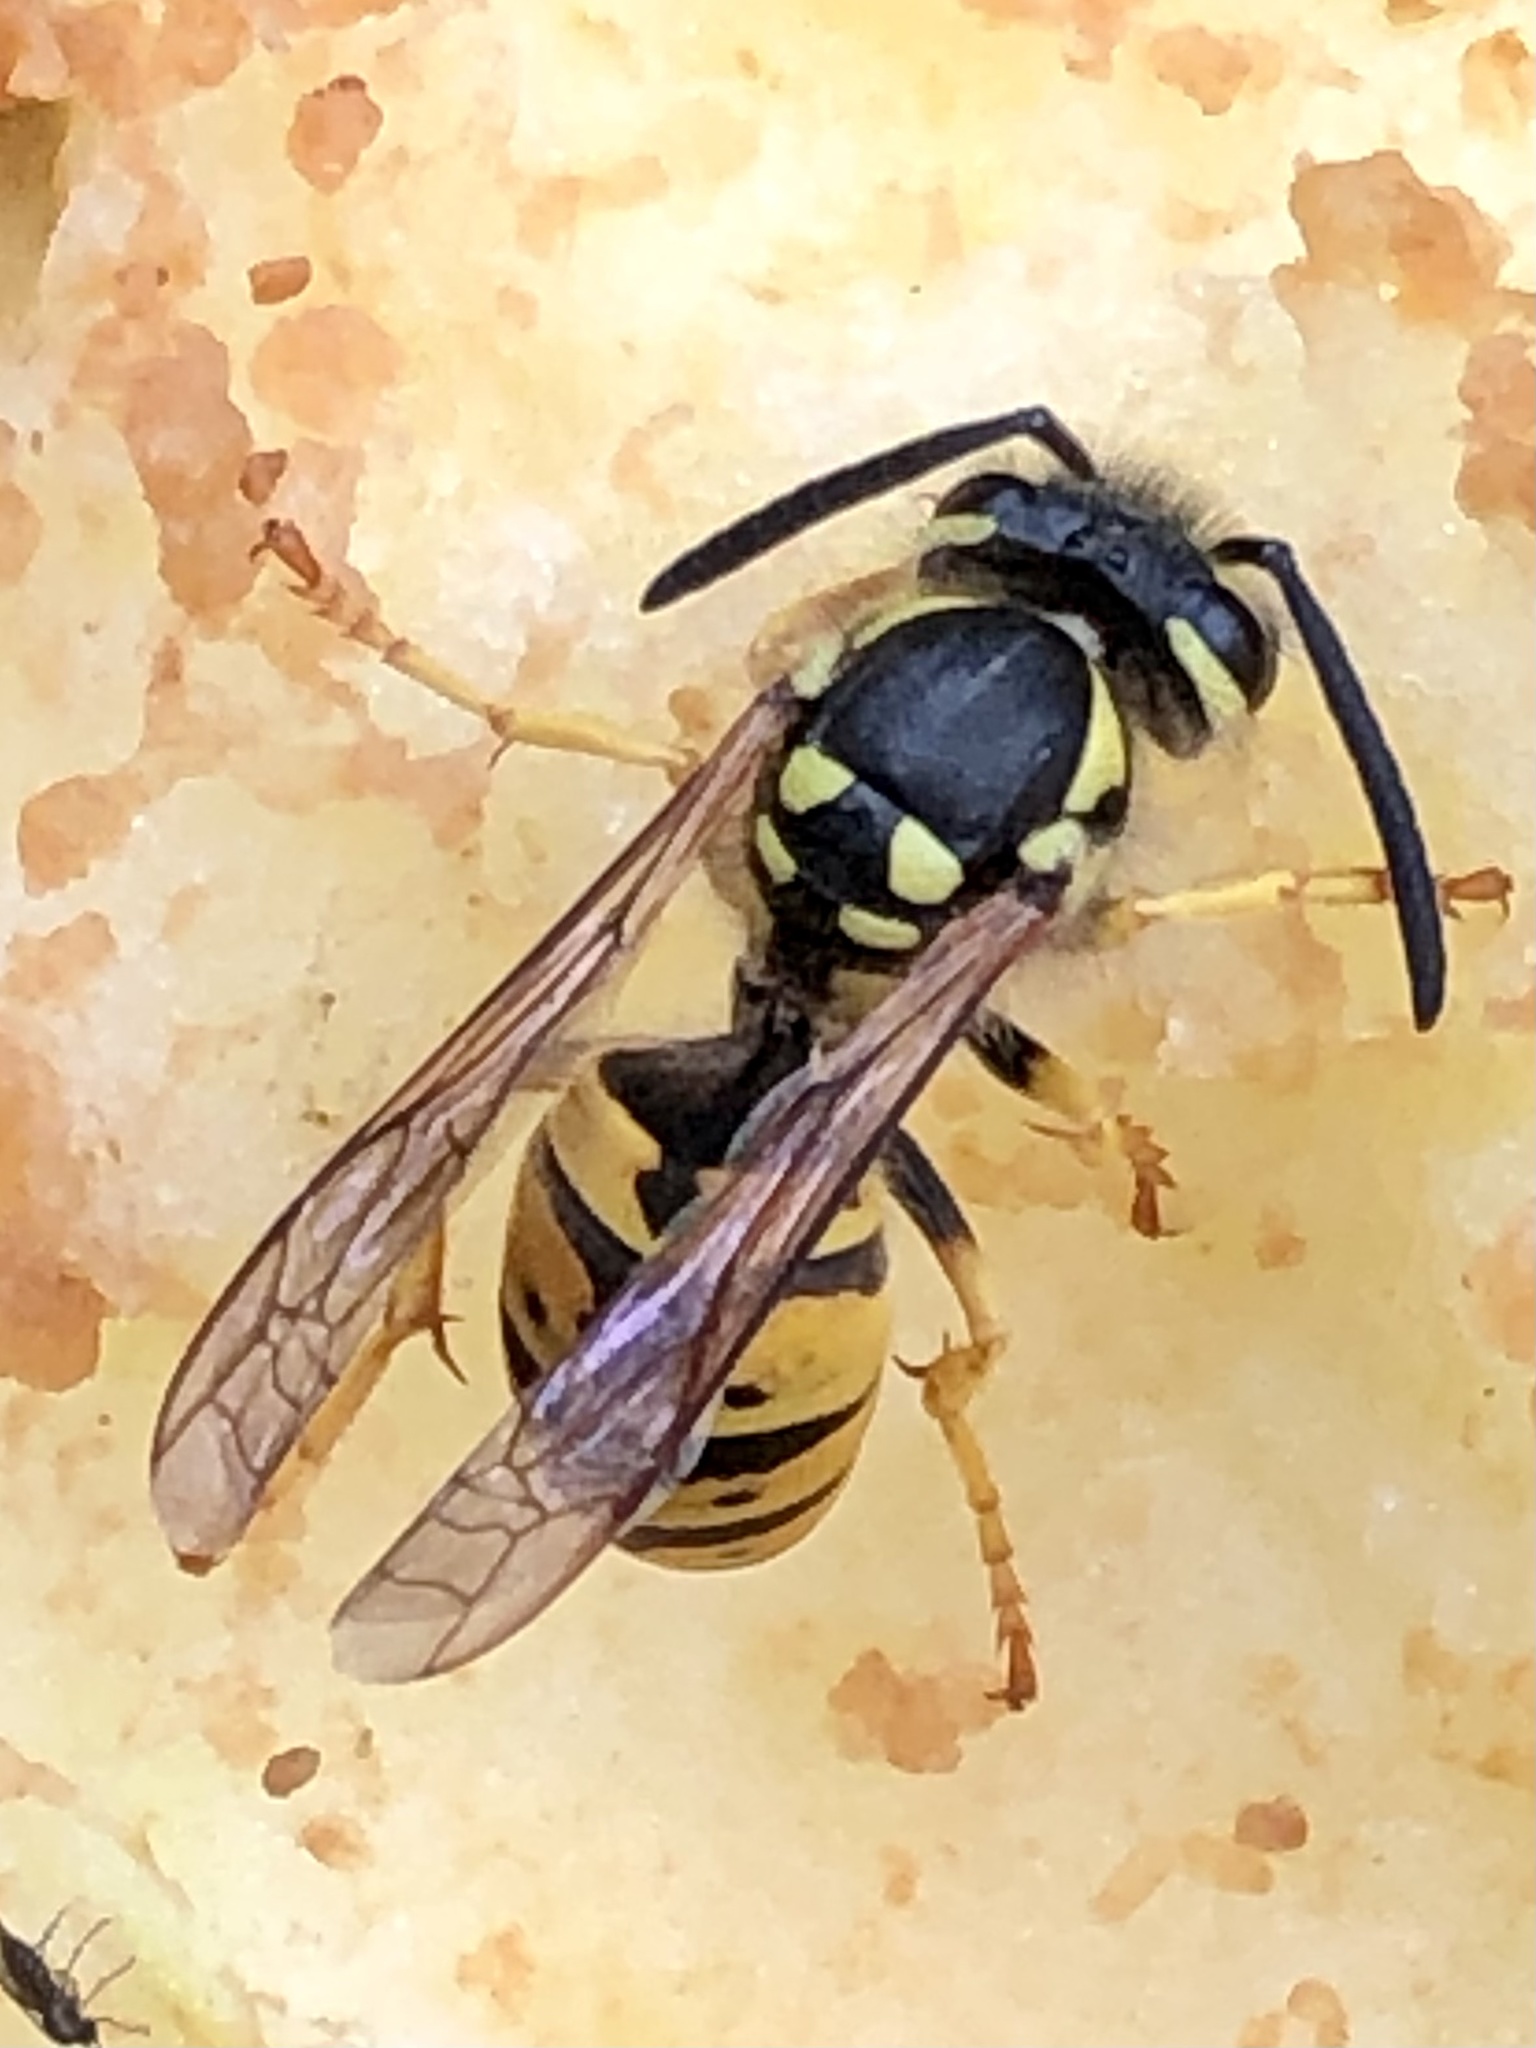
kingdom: Animalia
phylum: Arthropoda
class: Insecta
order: Hymenoptera
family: Vespidae
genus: Vespula
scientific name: Vespula germanica
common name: German wasp
